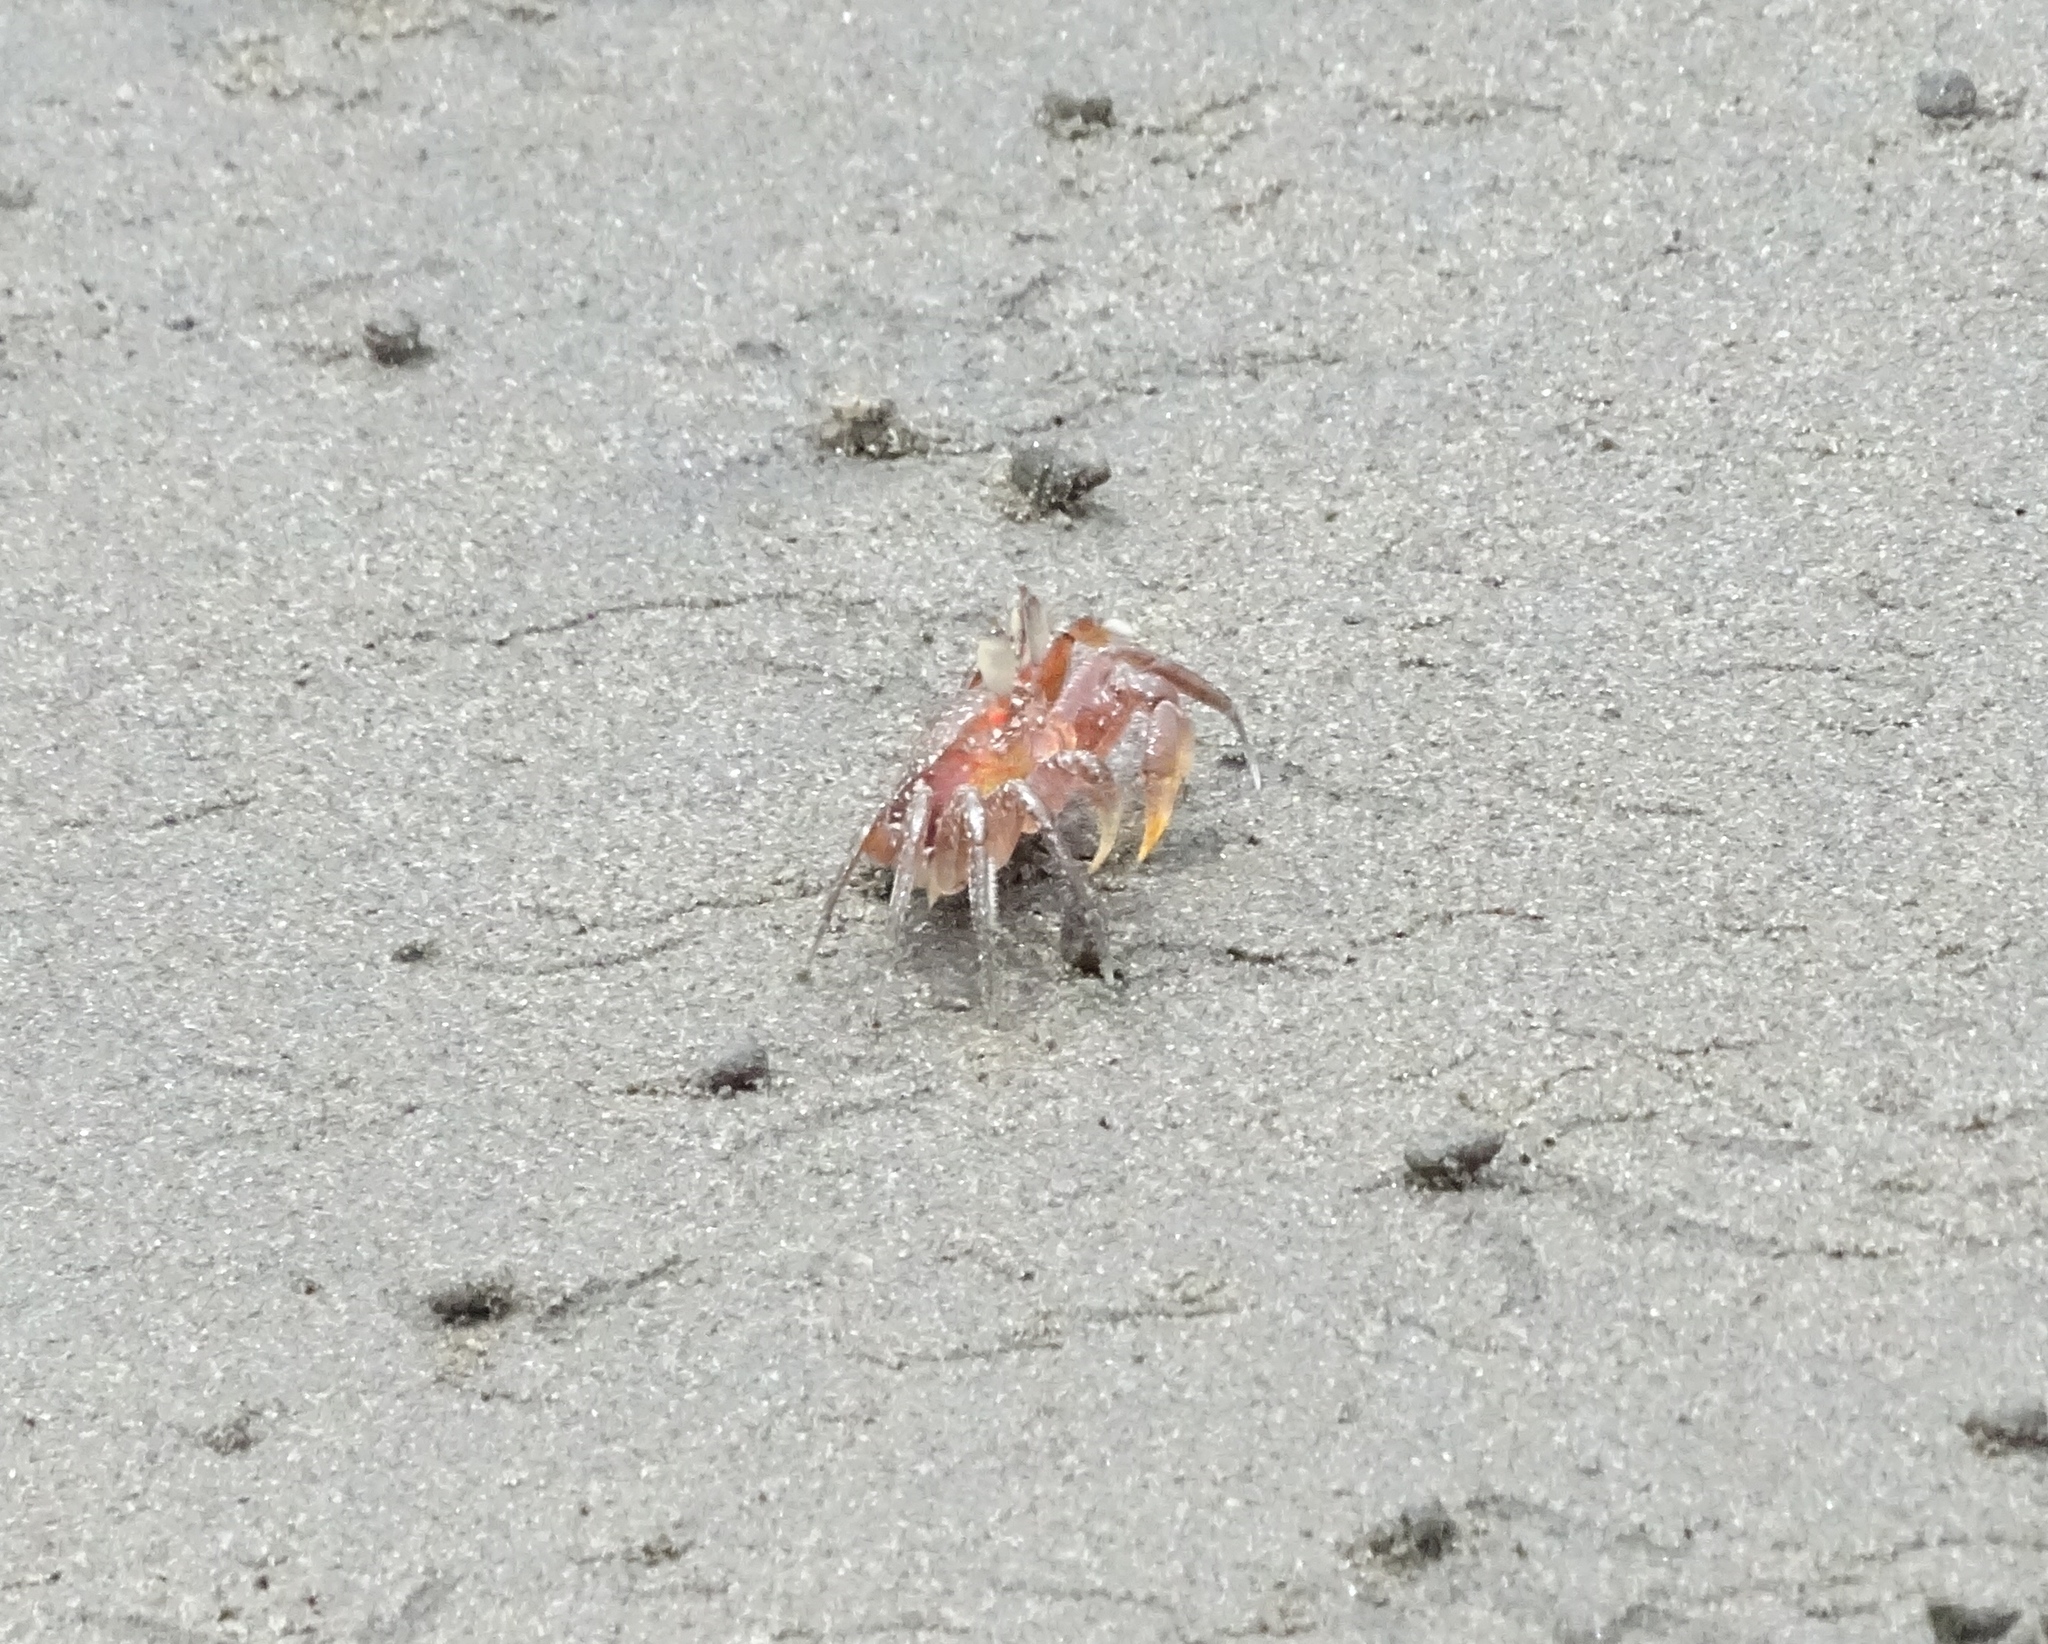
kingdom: Animalia
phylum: Arthropoda
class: Malacostraca
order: Decapoda
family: Ocypodidae
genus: Ocypode
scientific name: Ocypode gaudichaudii
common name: Pacific ghost crab
